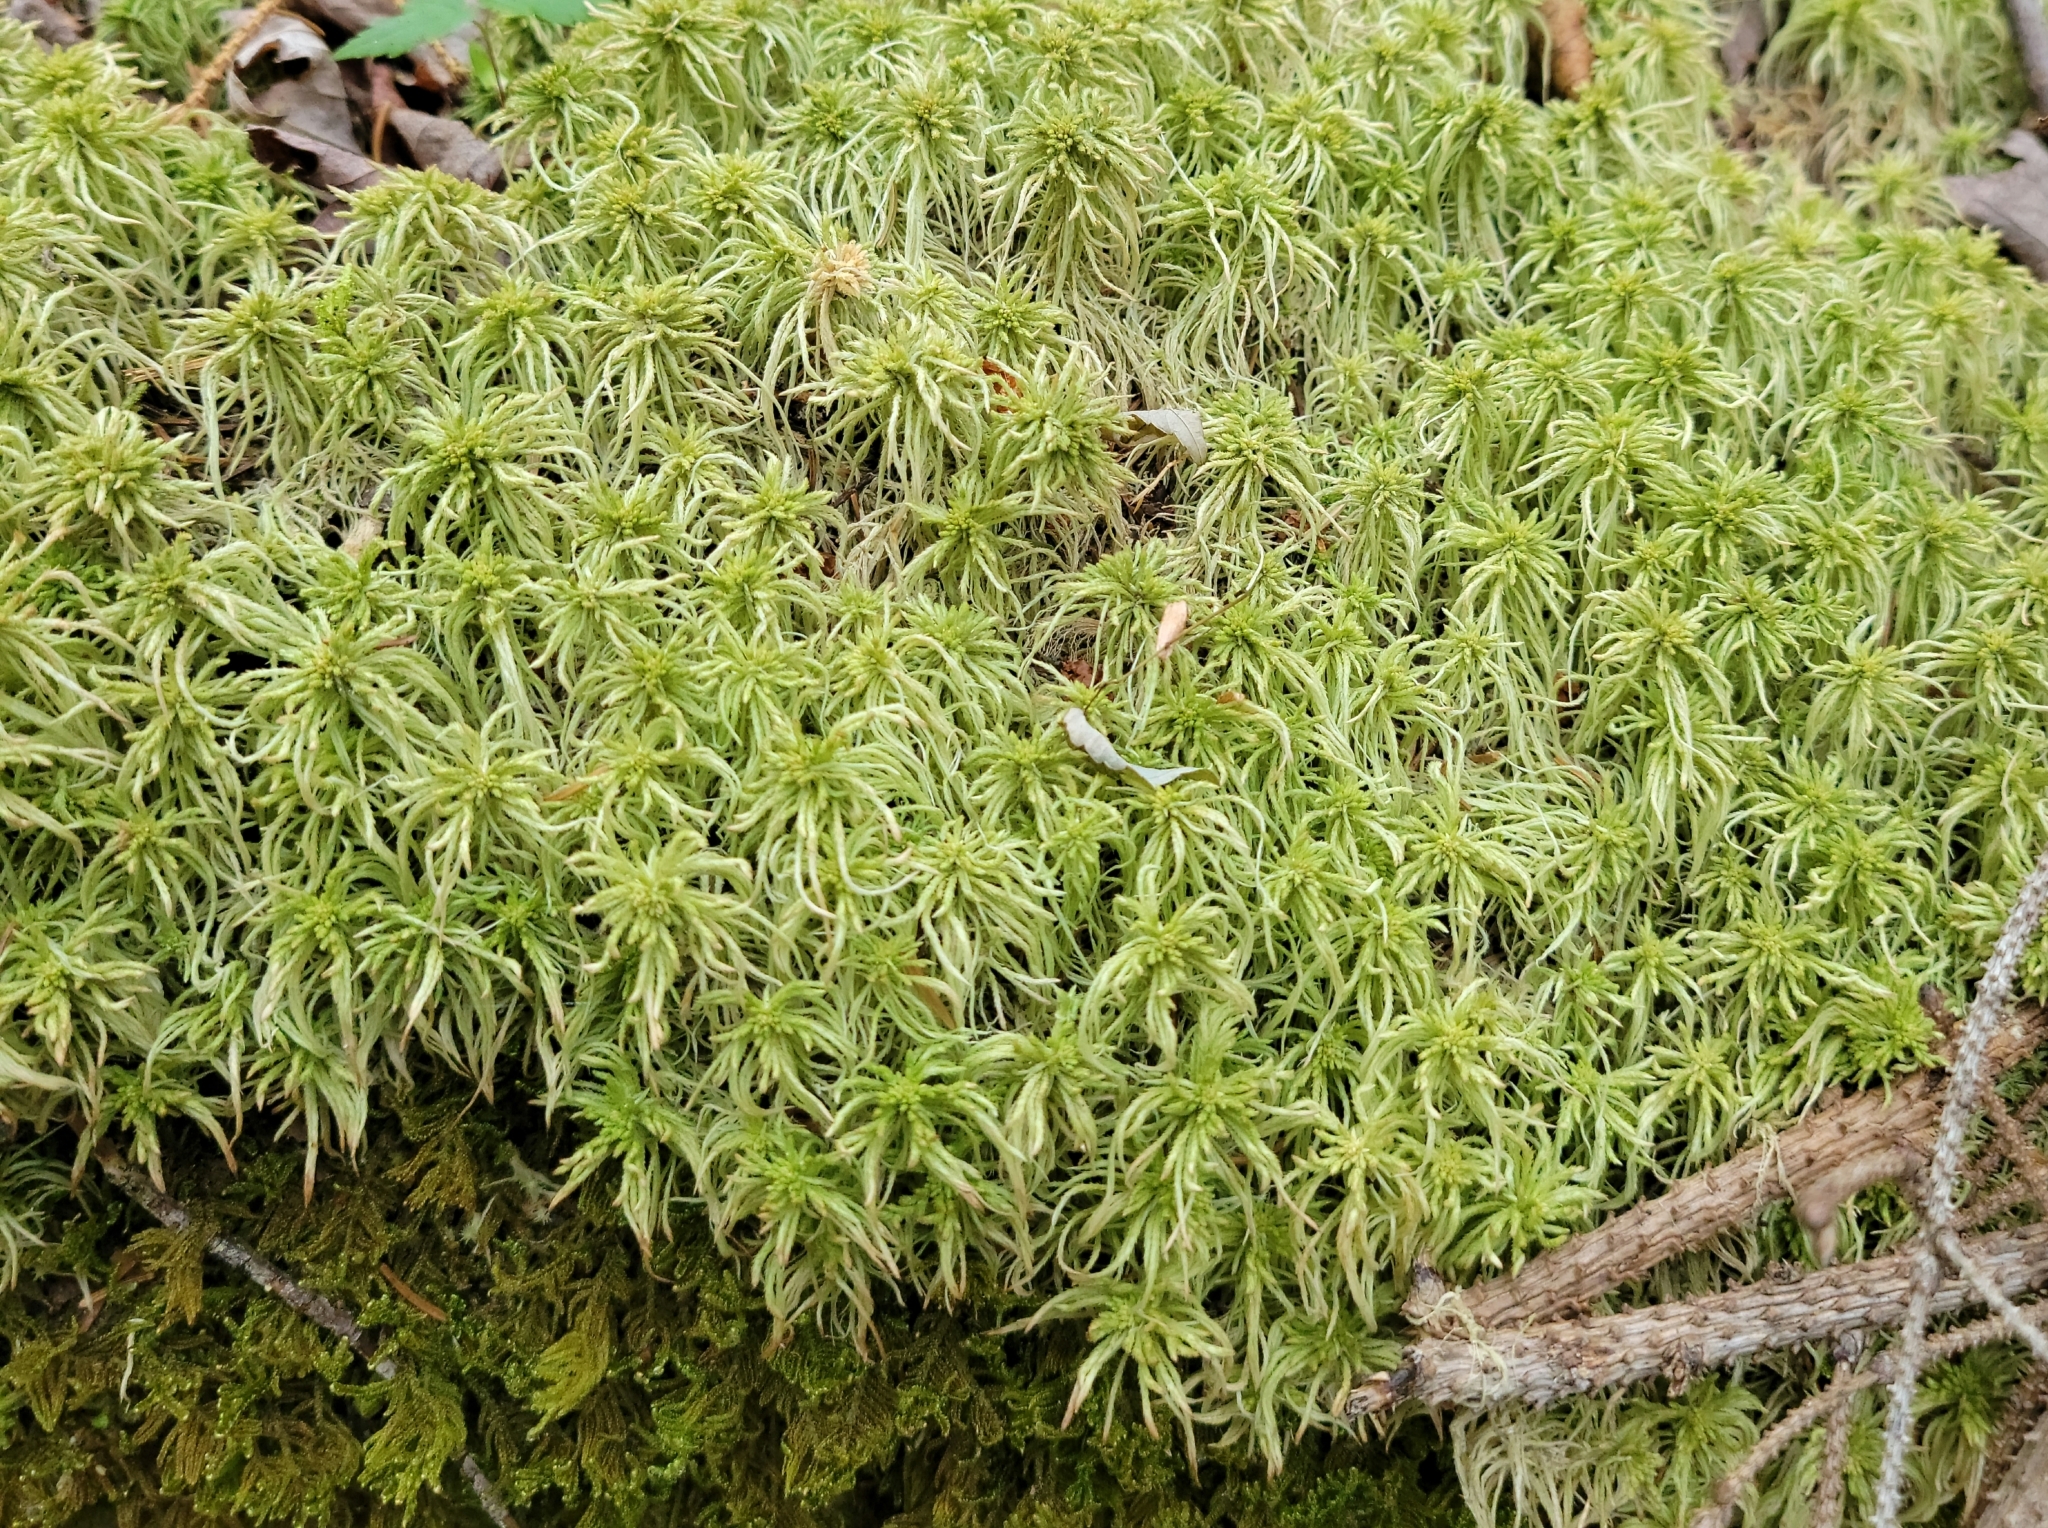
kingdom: Plantae
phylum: Bryophyta
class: Sphagnopsida
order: Sphagnales
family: Sphagnaceae
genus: Sphagnum
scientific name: Sphagnum girgensohnii
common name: Girgensohn's peat moss
